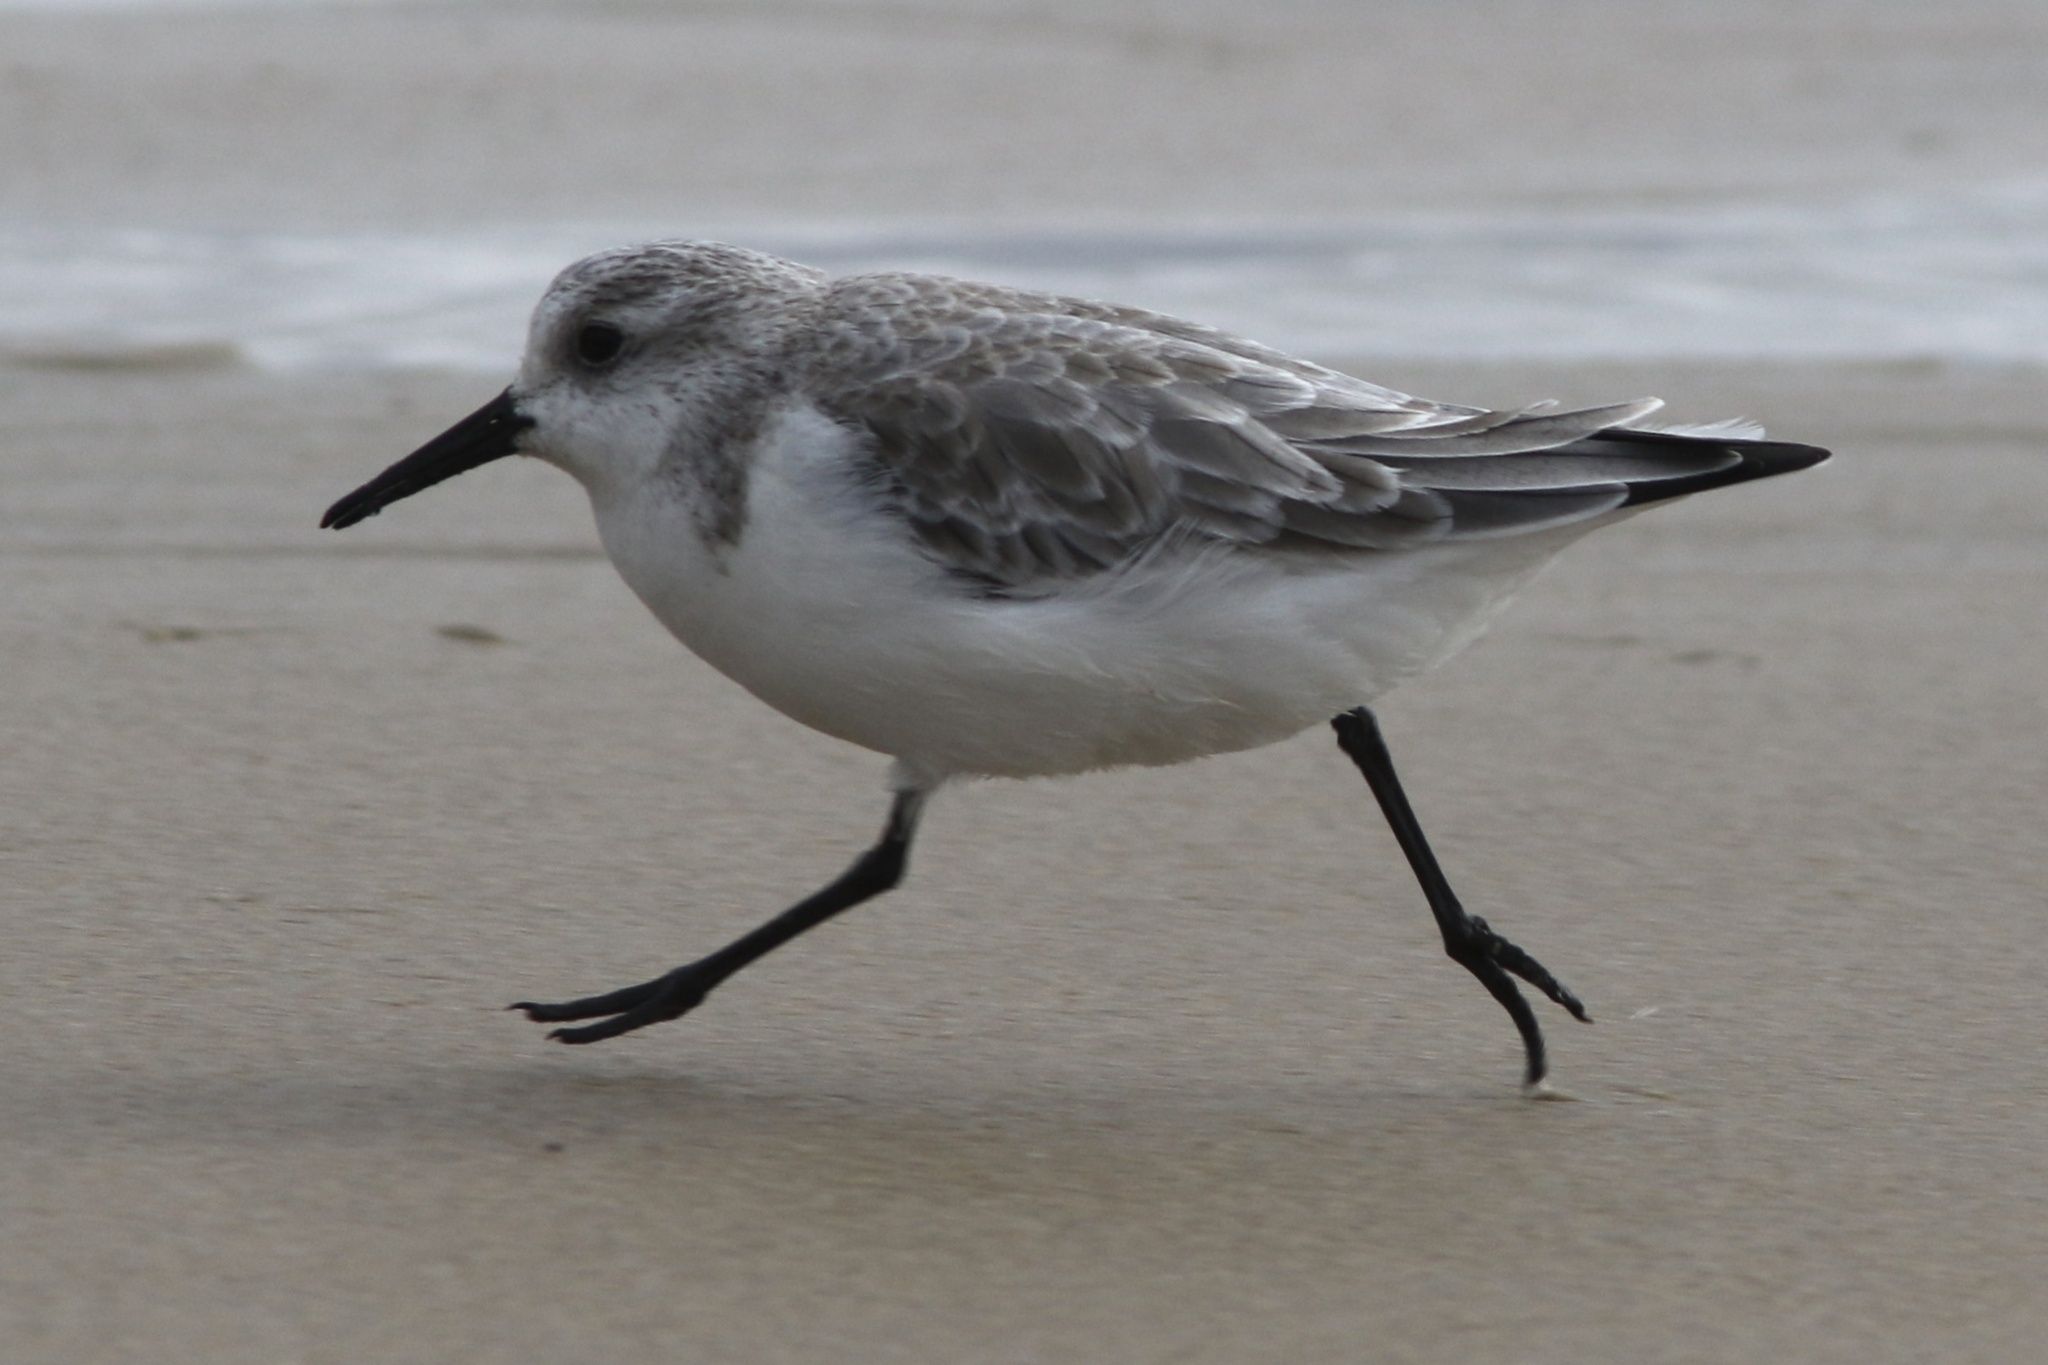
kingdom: Animalia
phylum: Chordata
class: Aves
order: Charadriiformes
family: Scolopacidae
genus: Calidris
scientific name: Calidris alba
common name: Sanderling
